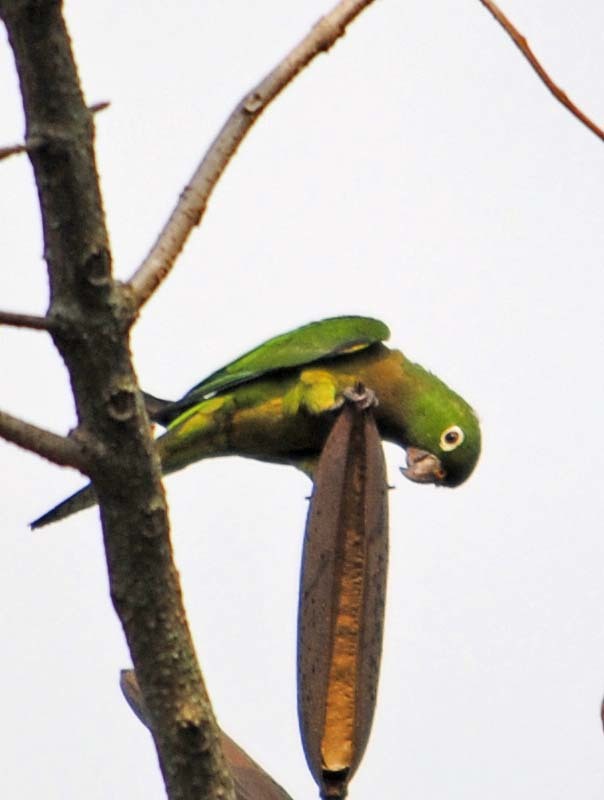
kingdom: Animalia
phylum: Chordata
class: Aves
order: Psittaciformes
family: Psittacidae
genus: Aratinga
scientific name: Aratinga nana
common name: Olive-throated parakeet
